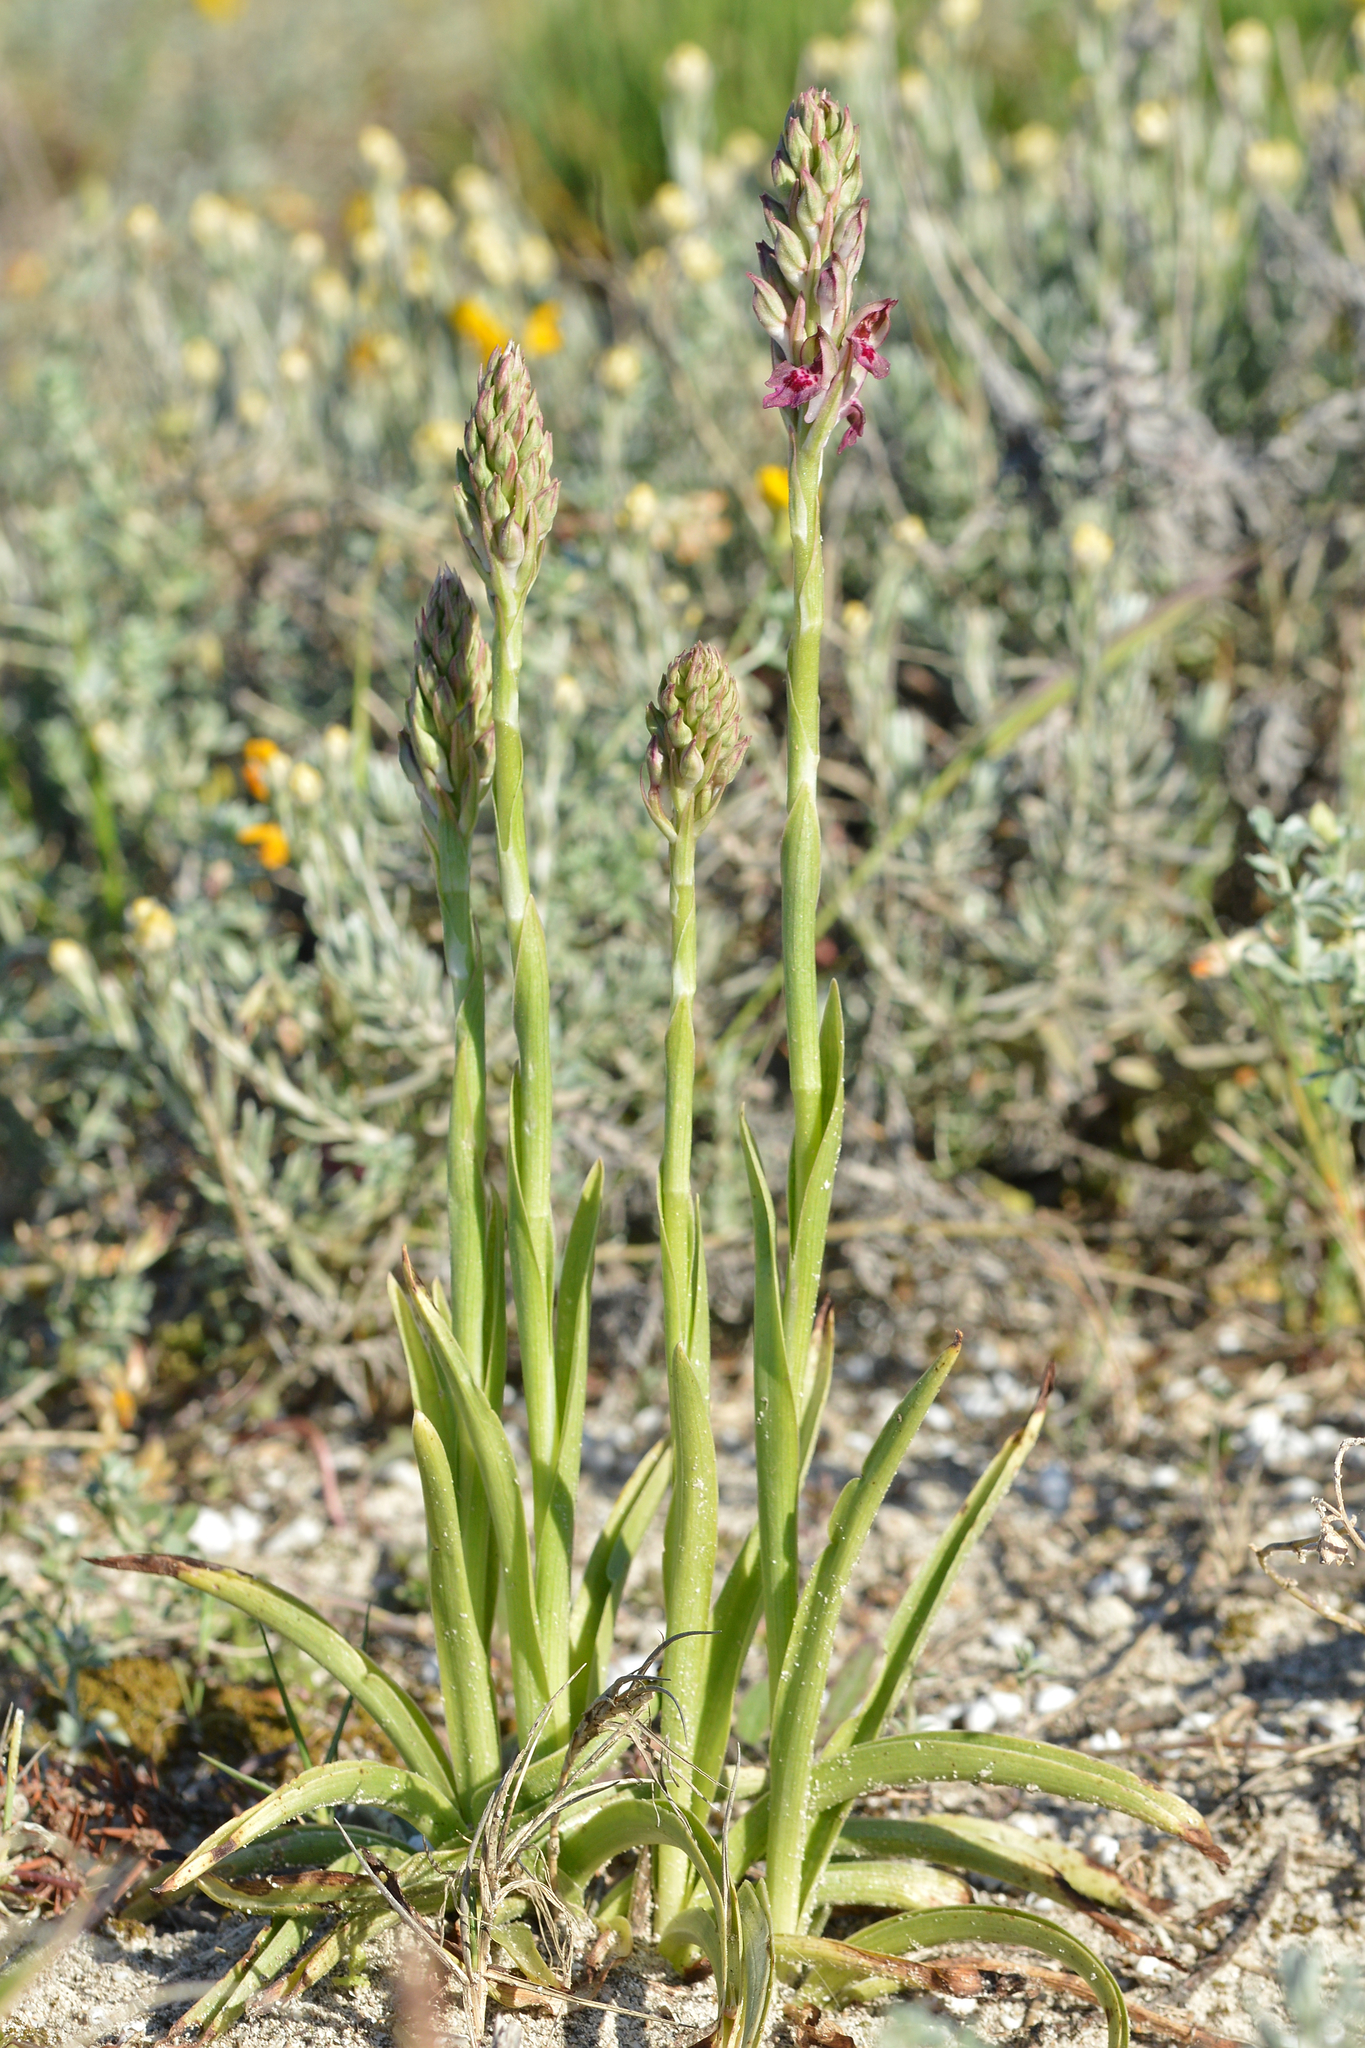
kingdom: Plantae
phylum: Tracheophyta
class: Liliopsida
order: Asparagales
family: Orchidaceae
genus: Anacamptis
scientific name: Anacamptis coriophora
